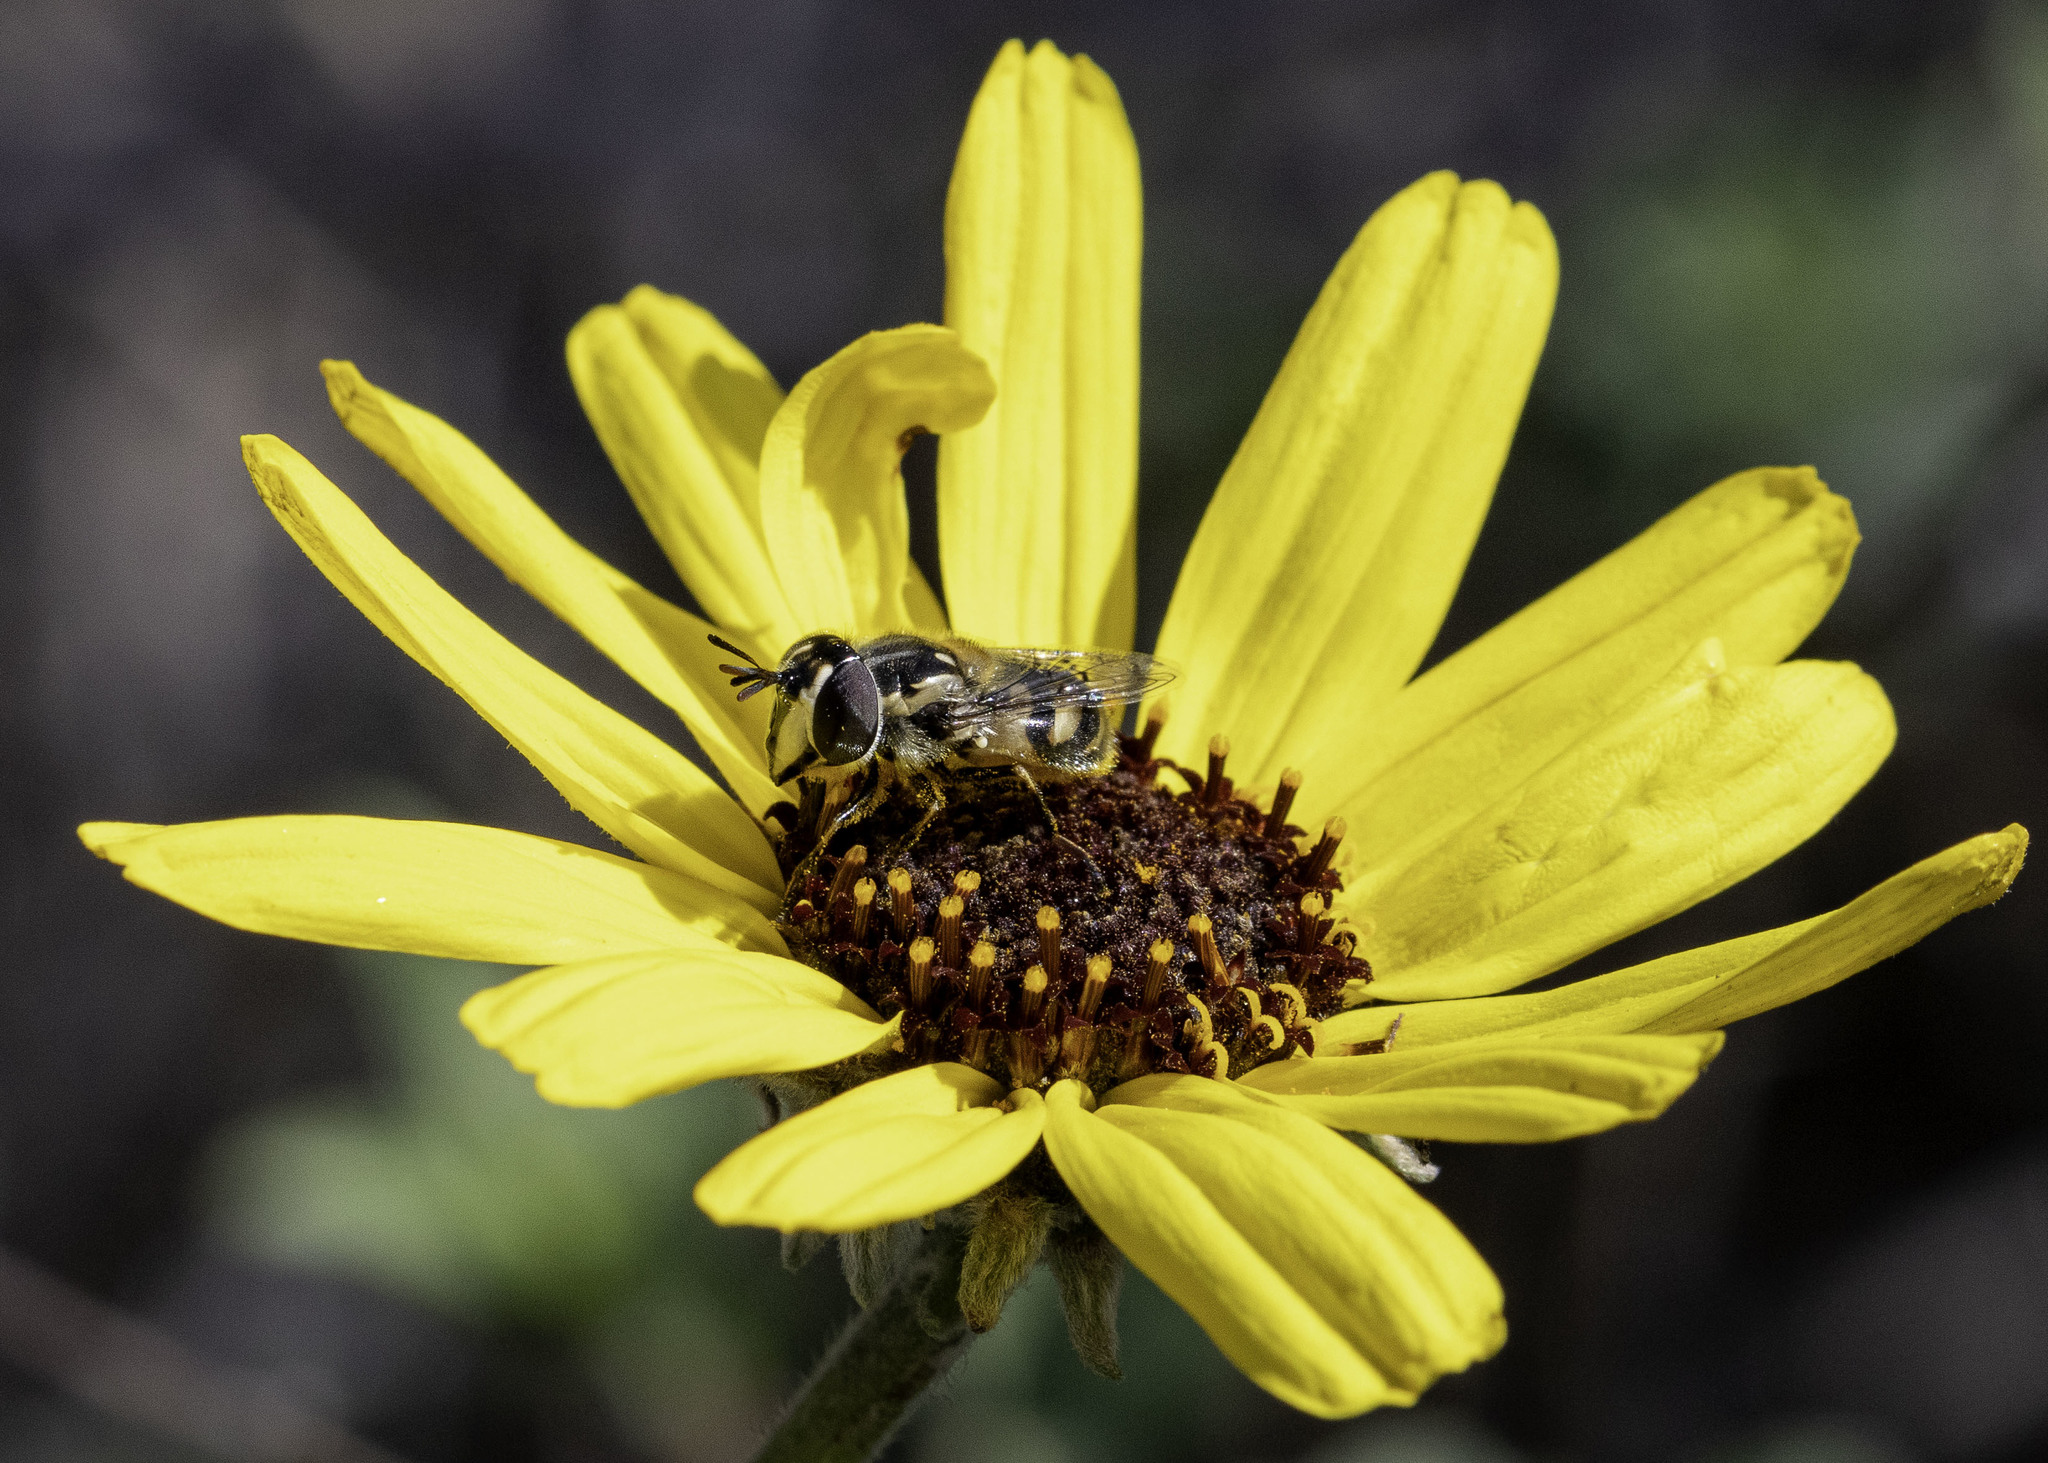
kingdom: Animalia
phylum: Arthropoda
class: Insecta
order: Diptera
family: Syrphidae
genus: Copestylum
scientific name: Copestylum marginatum
